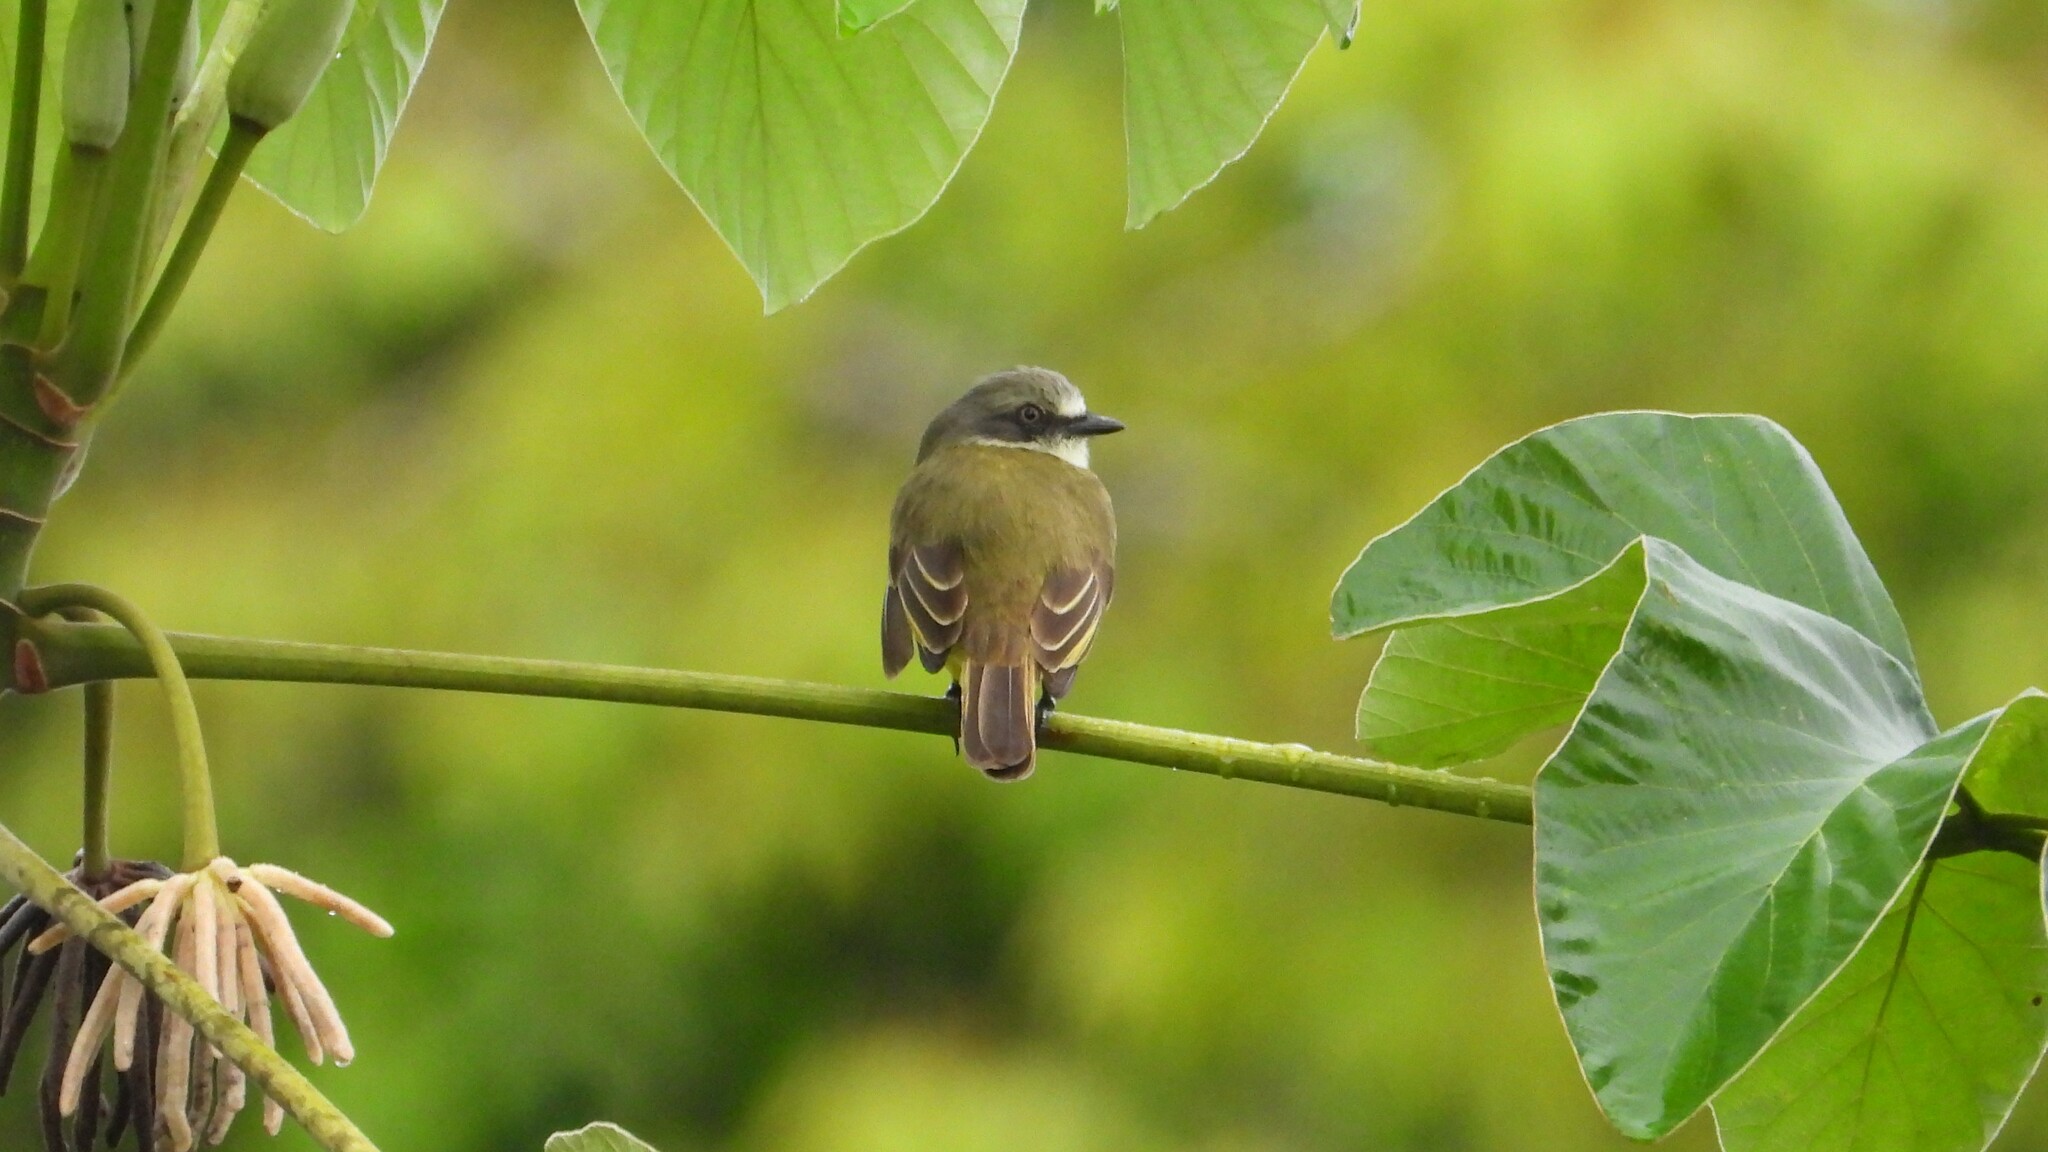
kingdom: Animalia
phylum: Chordata
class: Aves
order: Passeriformes
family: Tyrannidae
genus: Myiozetetes
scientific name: Myiozetetes granadensis
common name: Gray-capped flycatcher
